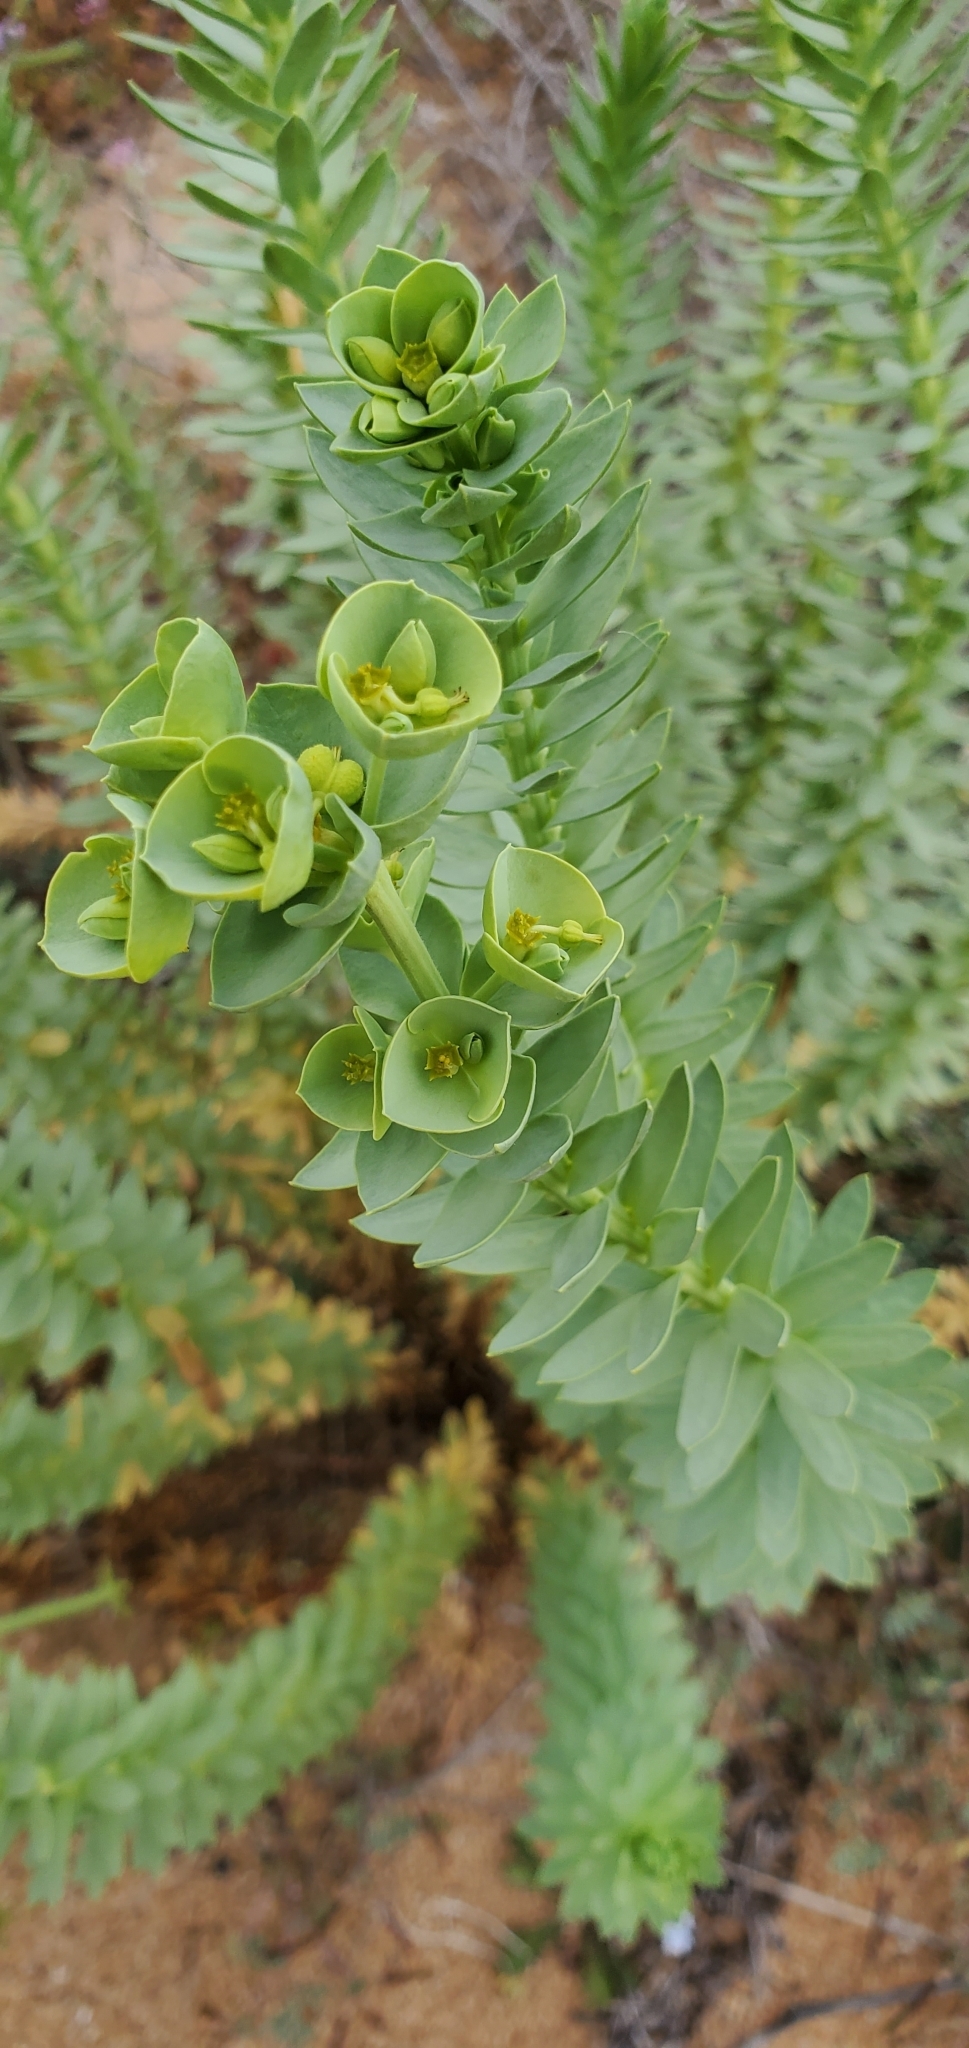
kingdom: Plantae
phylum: Tracheophyta
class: Magnoliopsida
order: Malpighiales
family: Euphorbiaceae
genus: Euphorbia
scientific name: Euphorbia paralias
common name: Sea spurge
